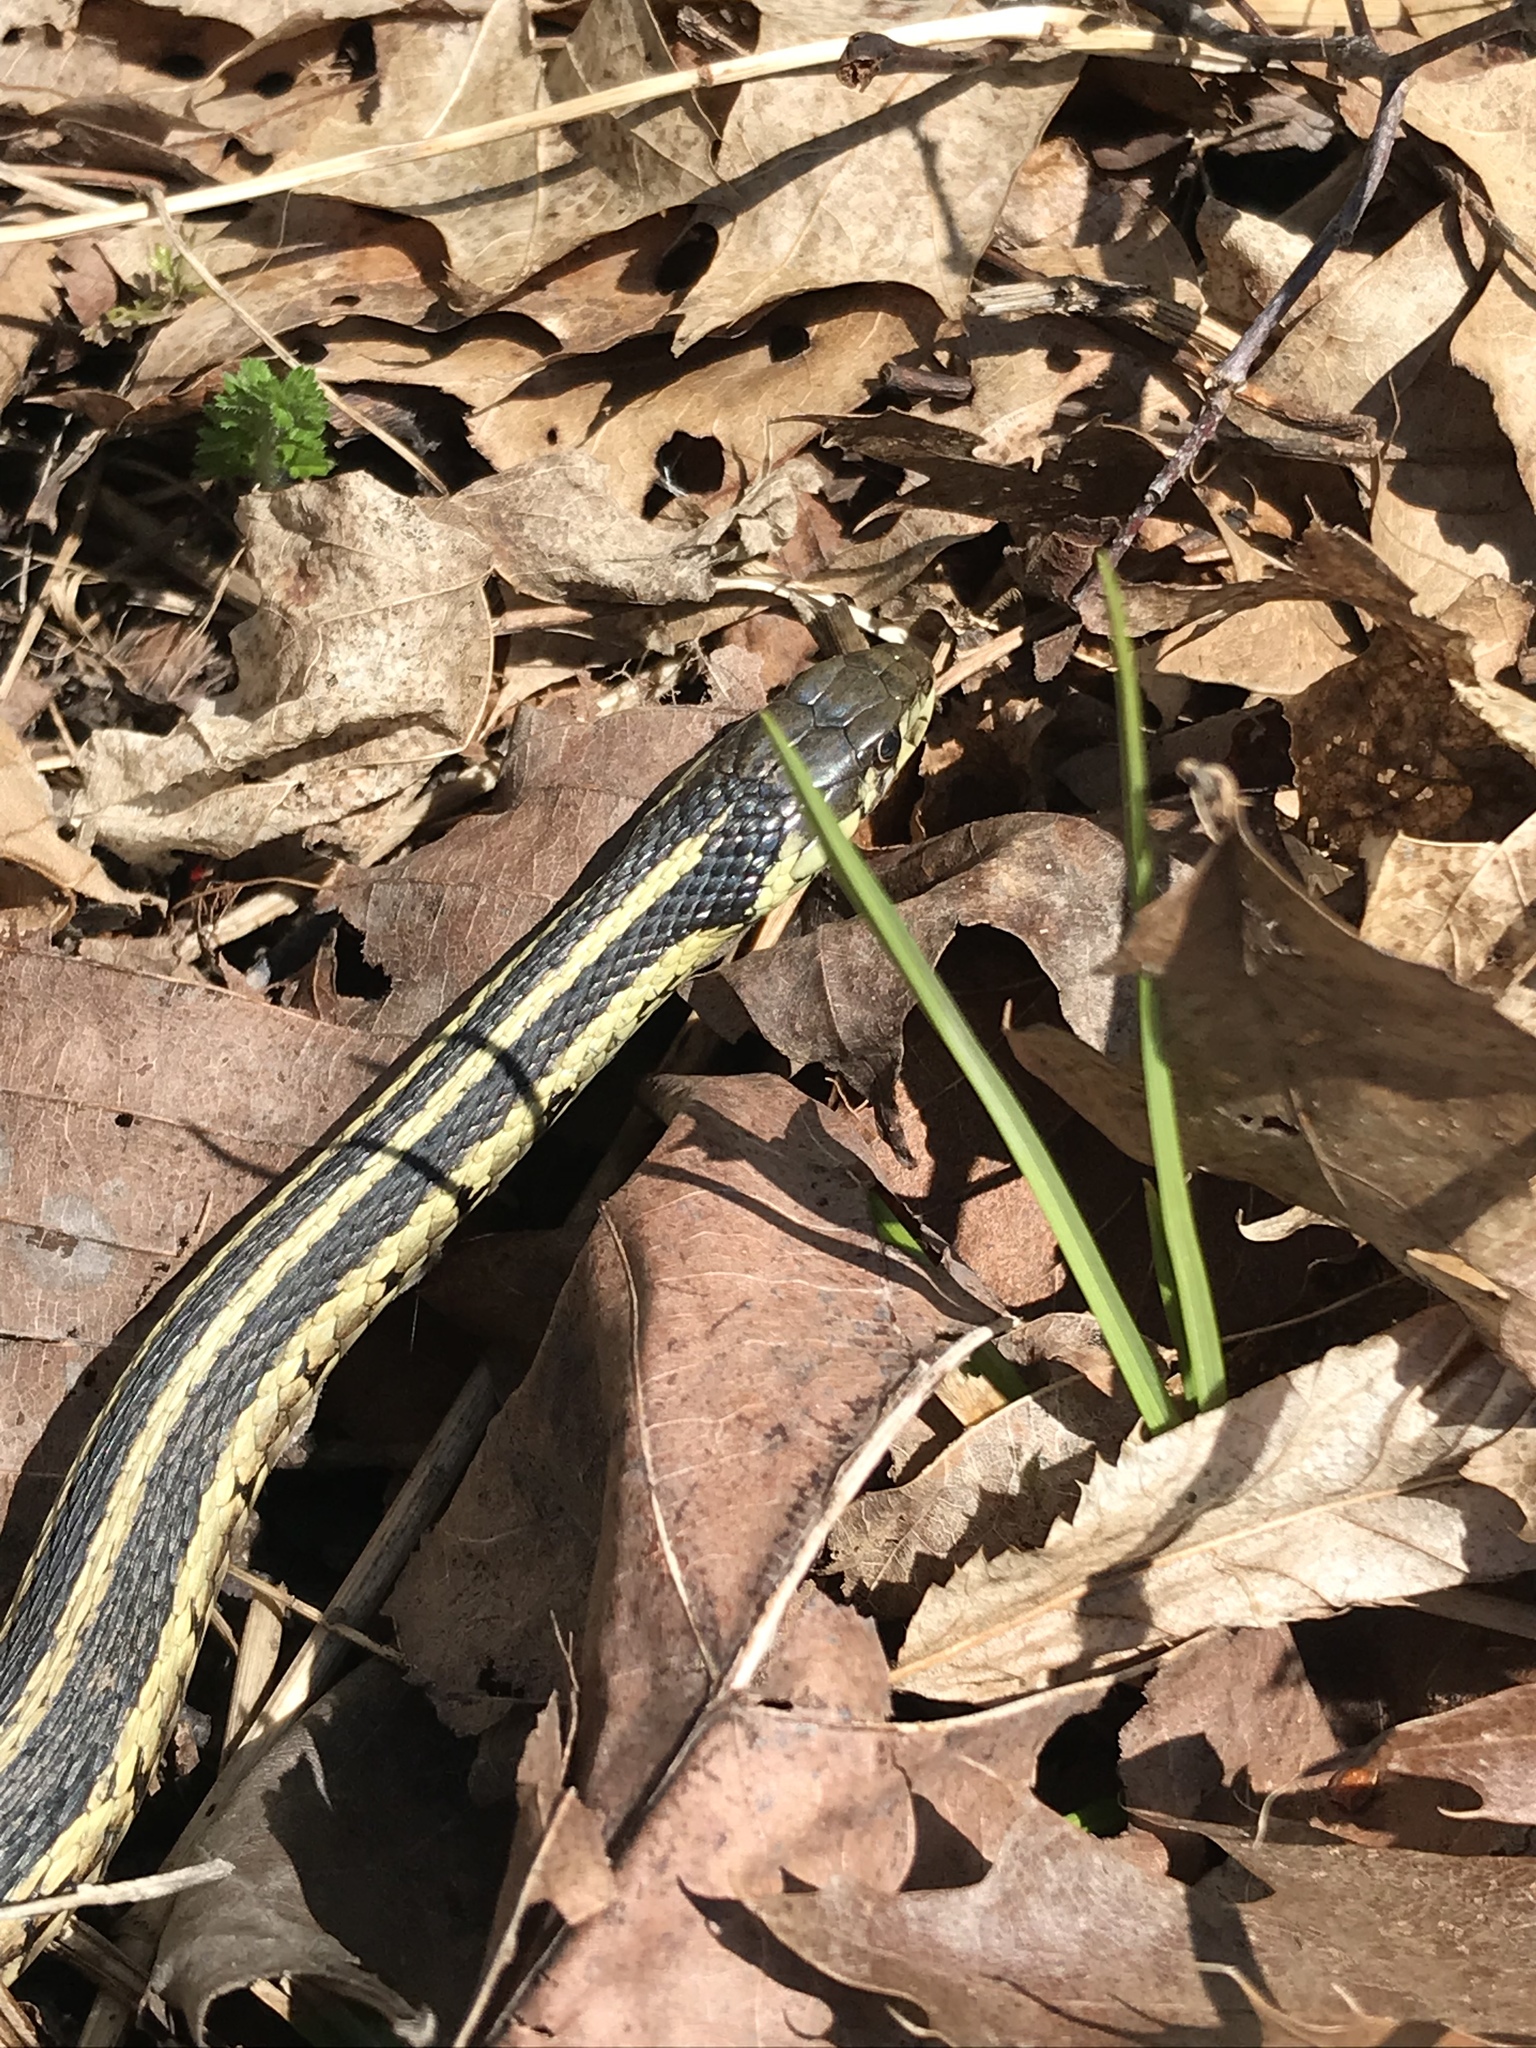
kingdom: Animalia
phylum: Chordata
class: Squamata
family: Colubridae
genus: Thamnophis
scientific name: Thamnophis sirtalis
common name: Common garter snake
